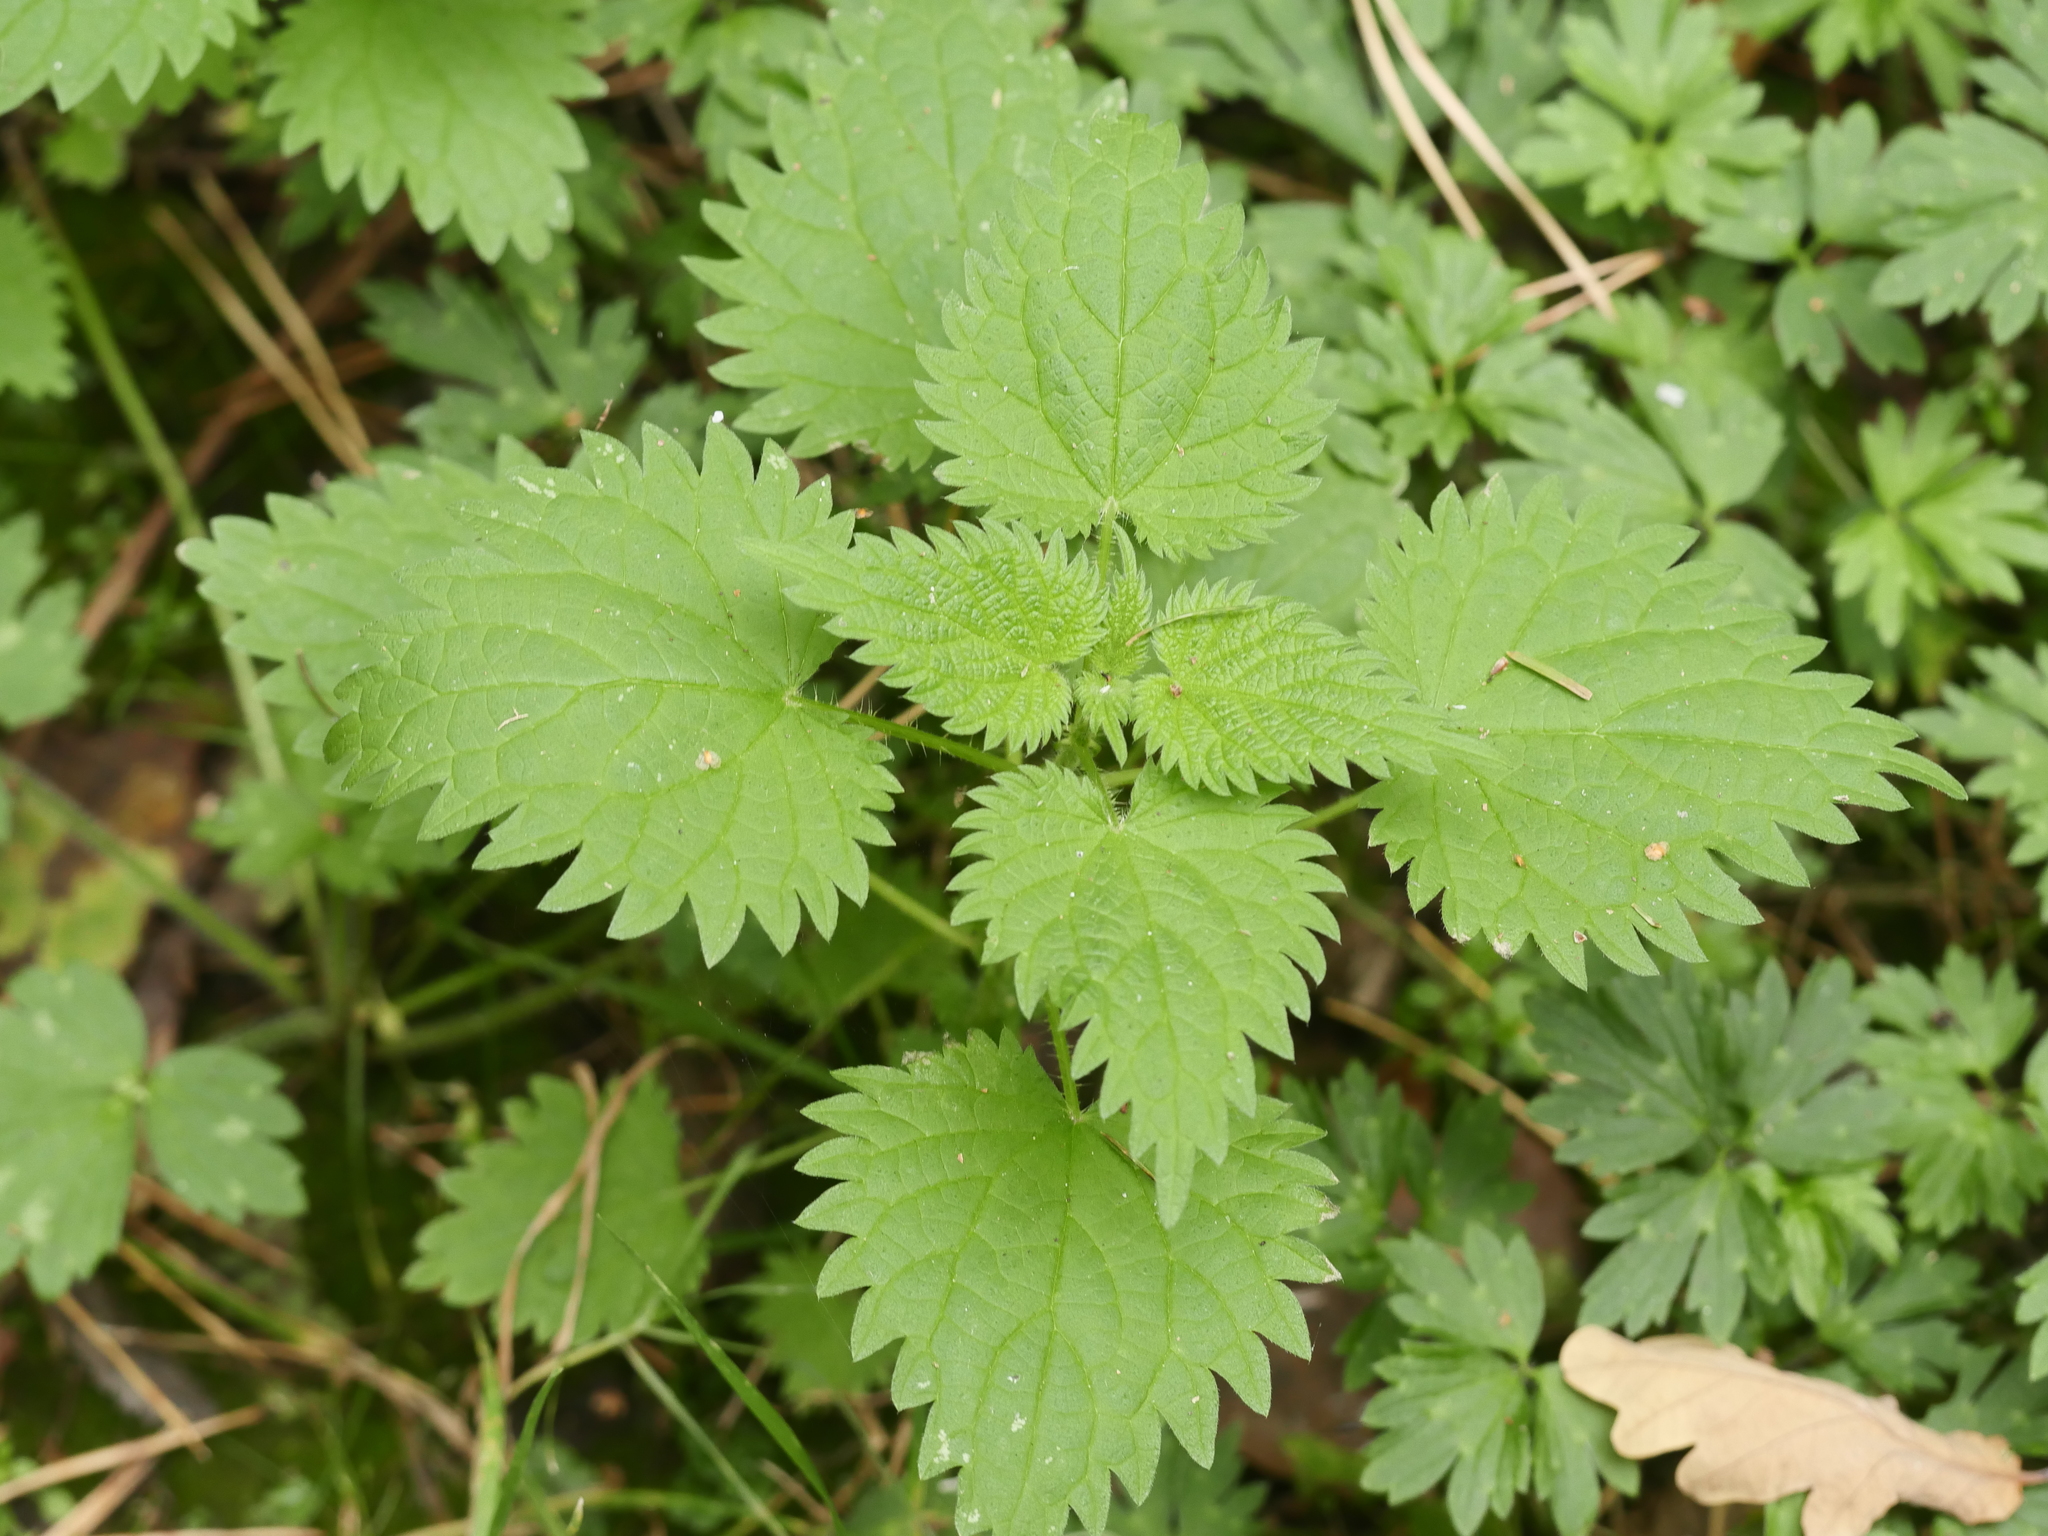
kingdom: Plantae
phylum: Tracheophyta
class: Magnoliopsida
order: Rosales
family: Urticaceae
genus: Urtica
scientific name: Urtica dioica
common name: Common nettle
